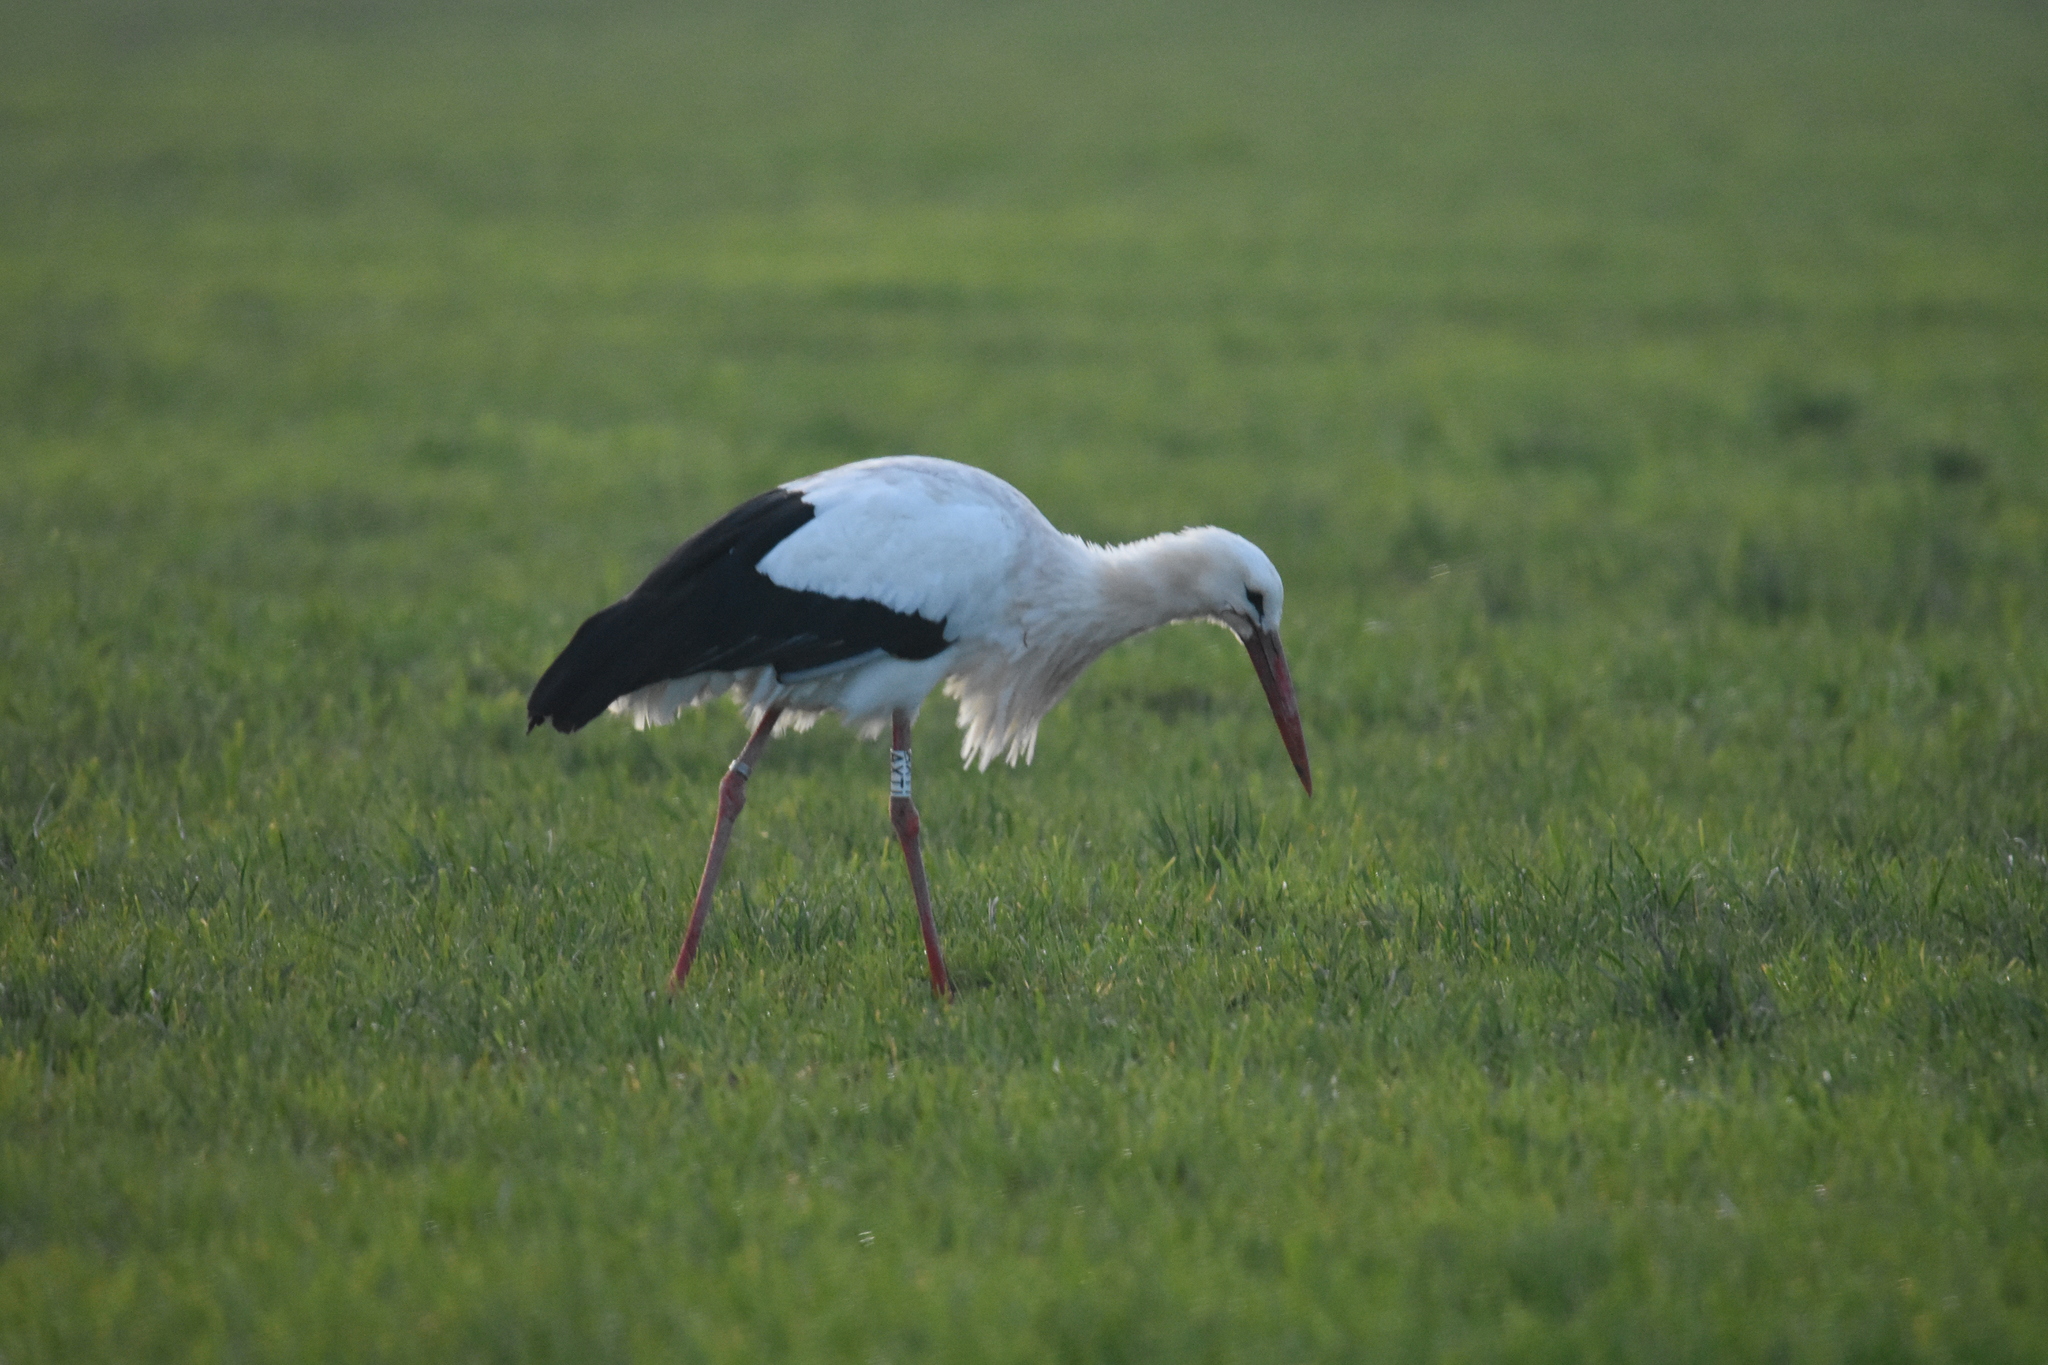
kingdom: Animalia
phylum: Chordata
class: Aves
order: Ciconiiformes
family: Ciconiidae
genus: Ciconia
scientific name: Ciconia ciconia
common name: White stork
